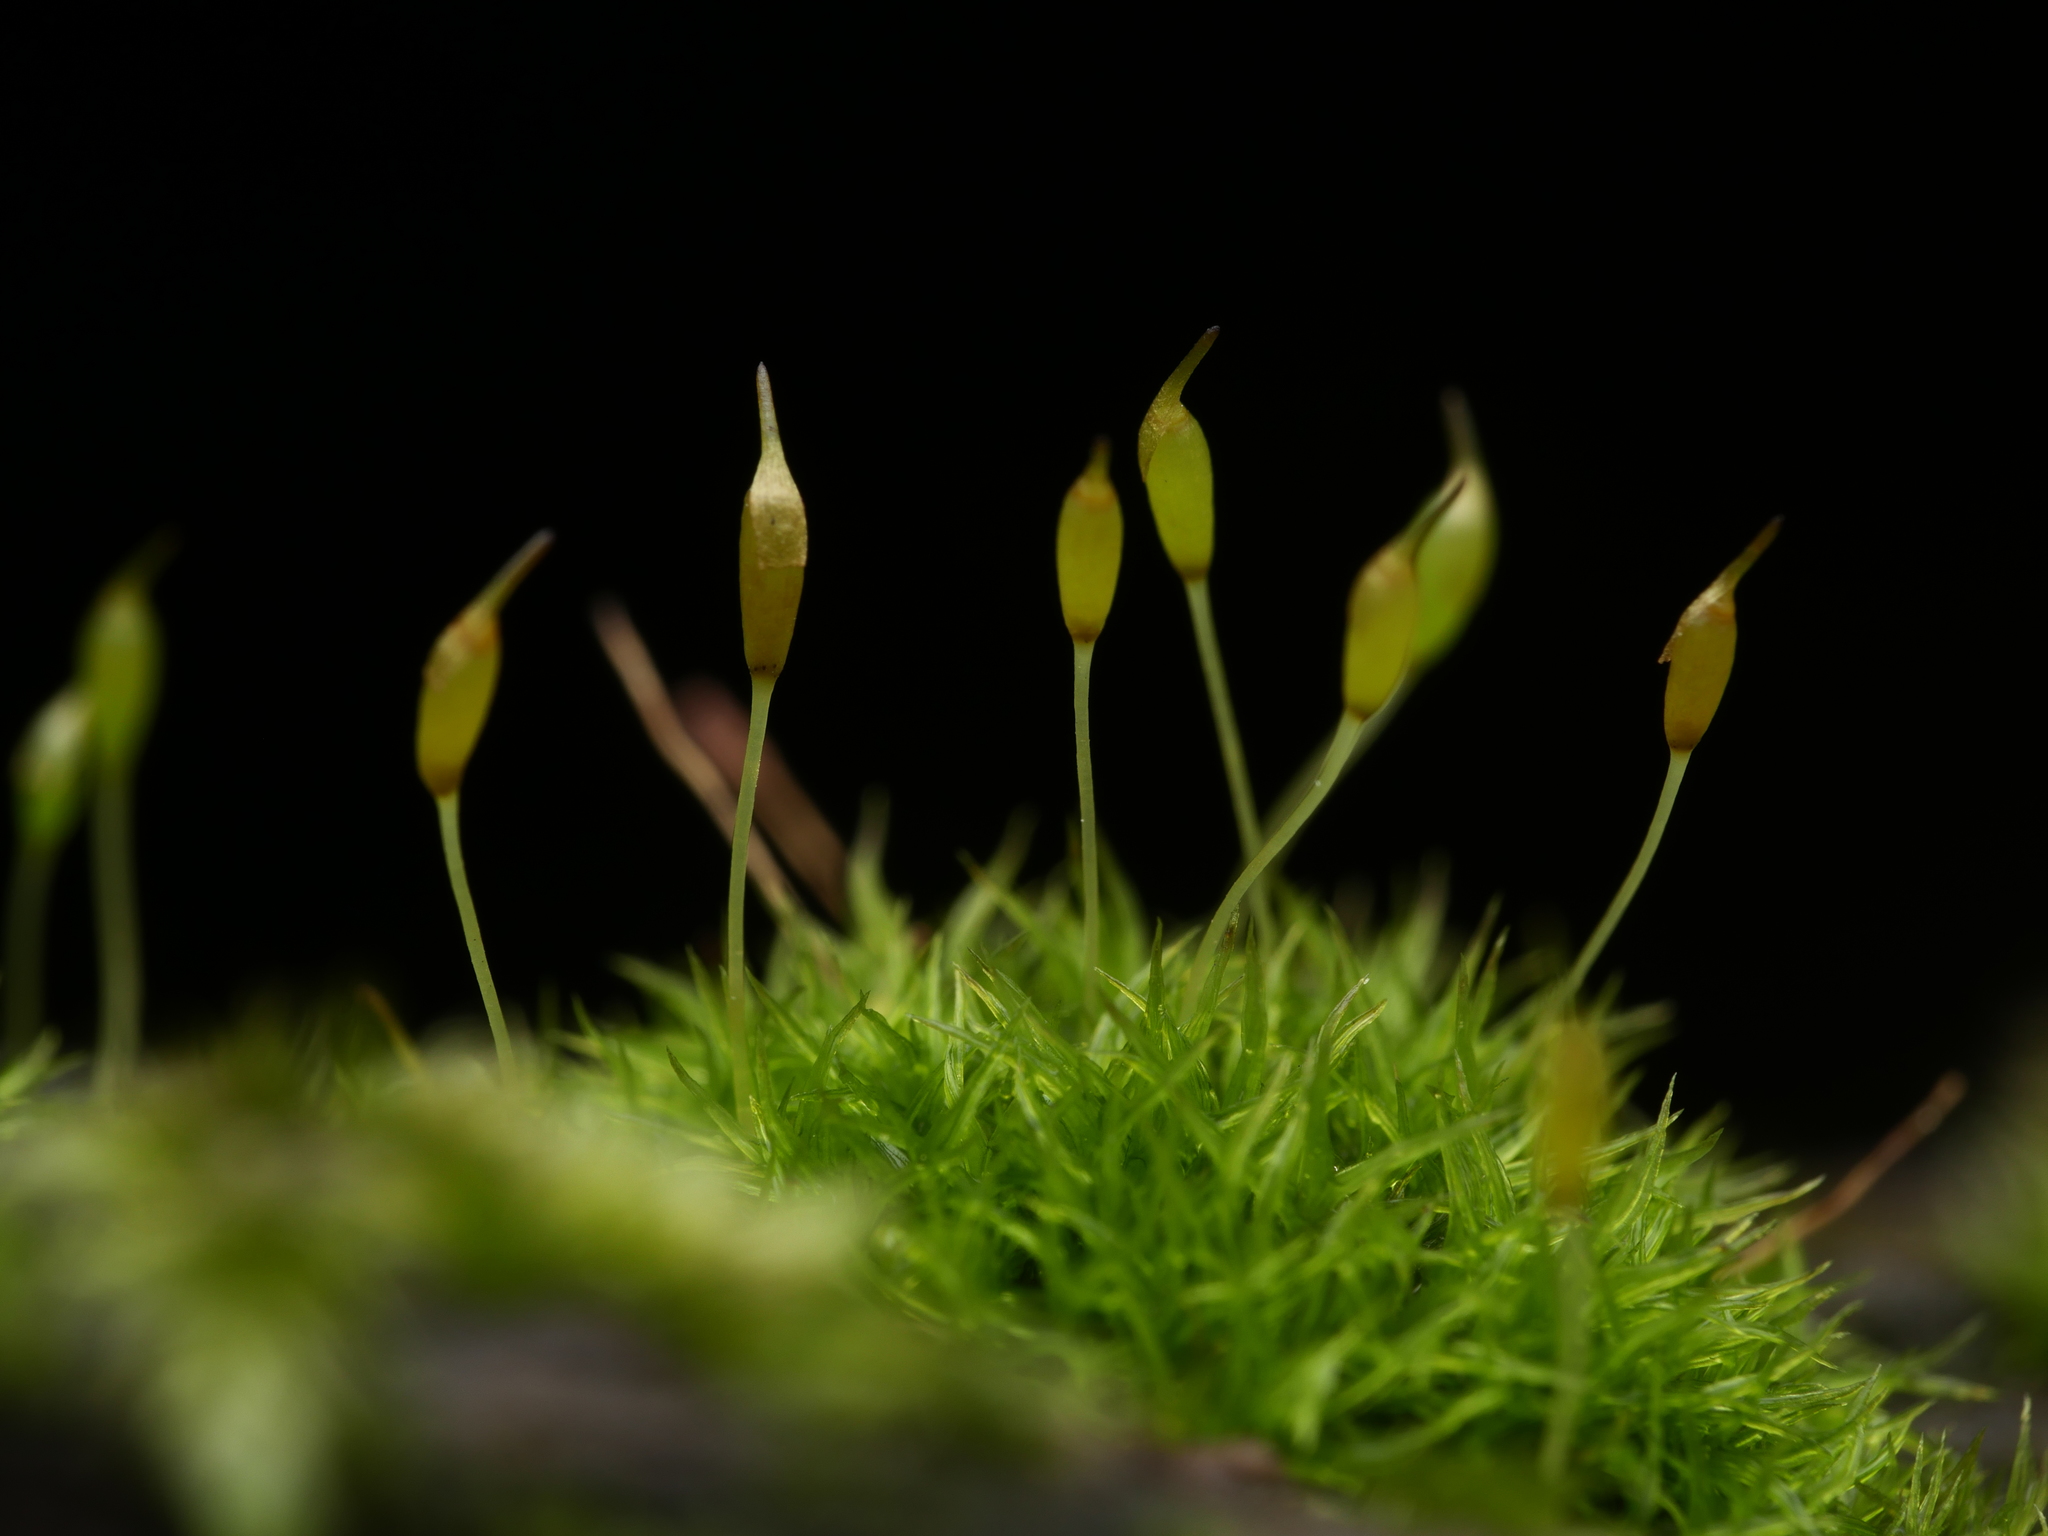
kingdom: Plantae
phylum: Bryophyta
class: Bryopsida
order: Dicranales
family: Rhabdoweisiaceae
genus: Dicranoweisia
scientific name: Dicranoweisia cirrata
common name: Common pincushion
